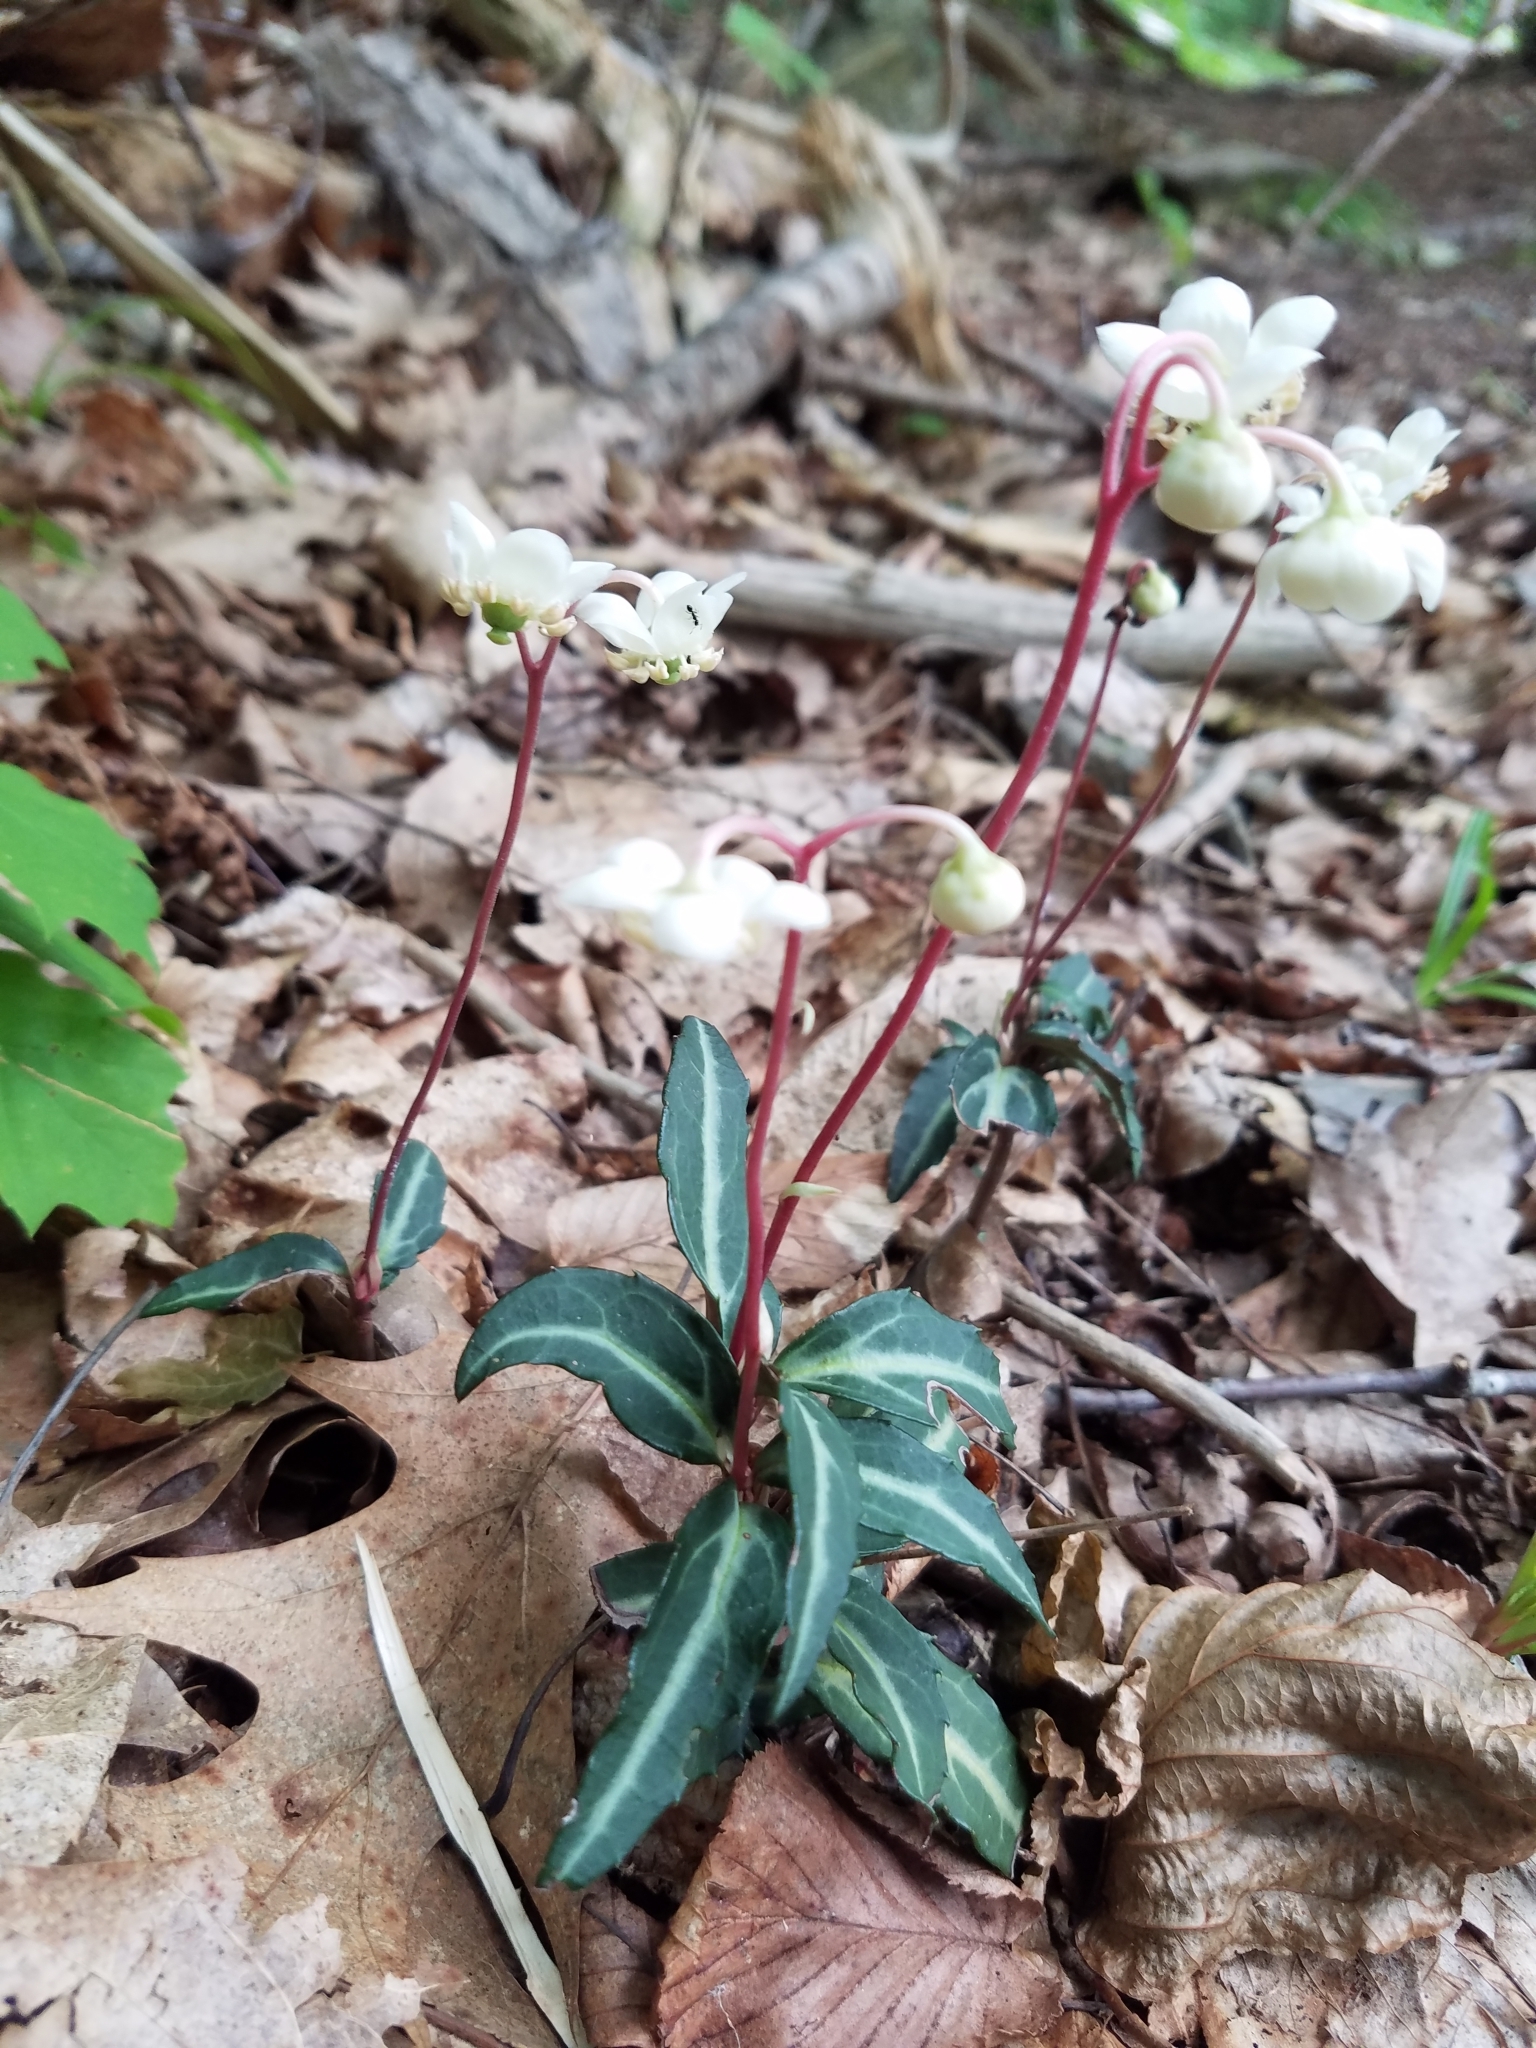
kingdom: Plantae
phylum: Tracheophyta
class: Magnoliopsida
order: Ericales
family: Ericaceae
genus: Chimaphila
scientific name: Chimaphila maculata
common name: Spotted pipsissewa
